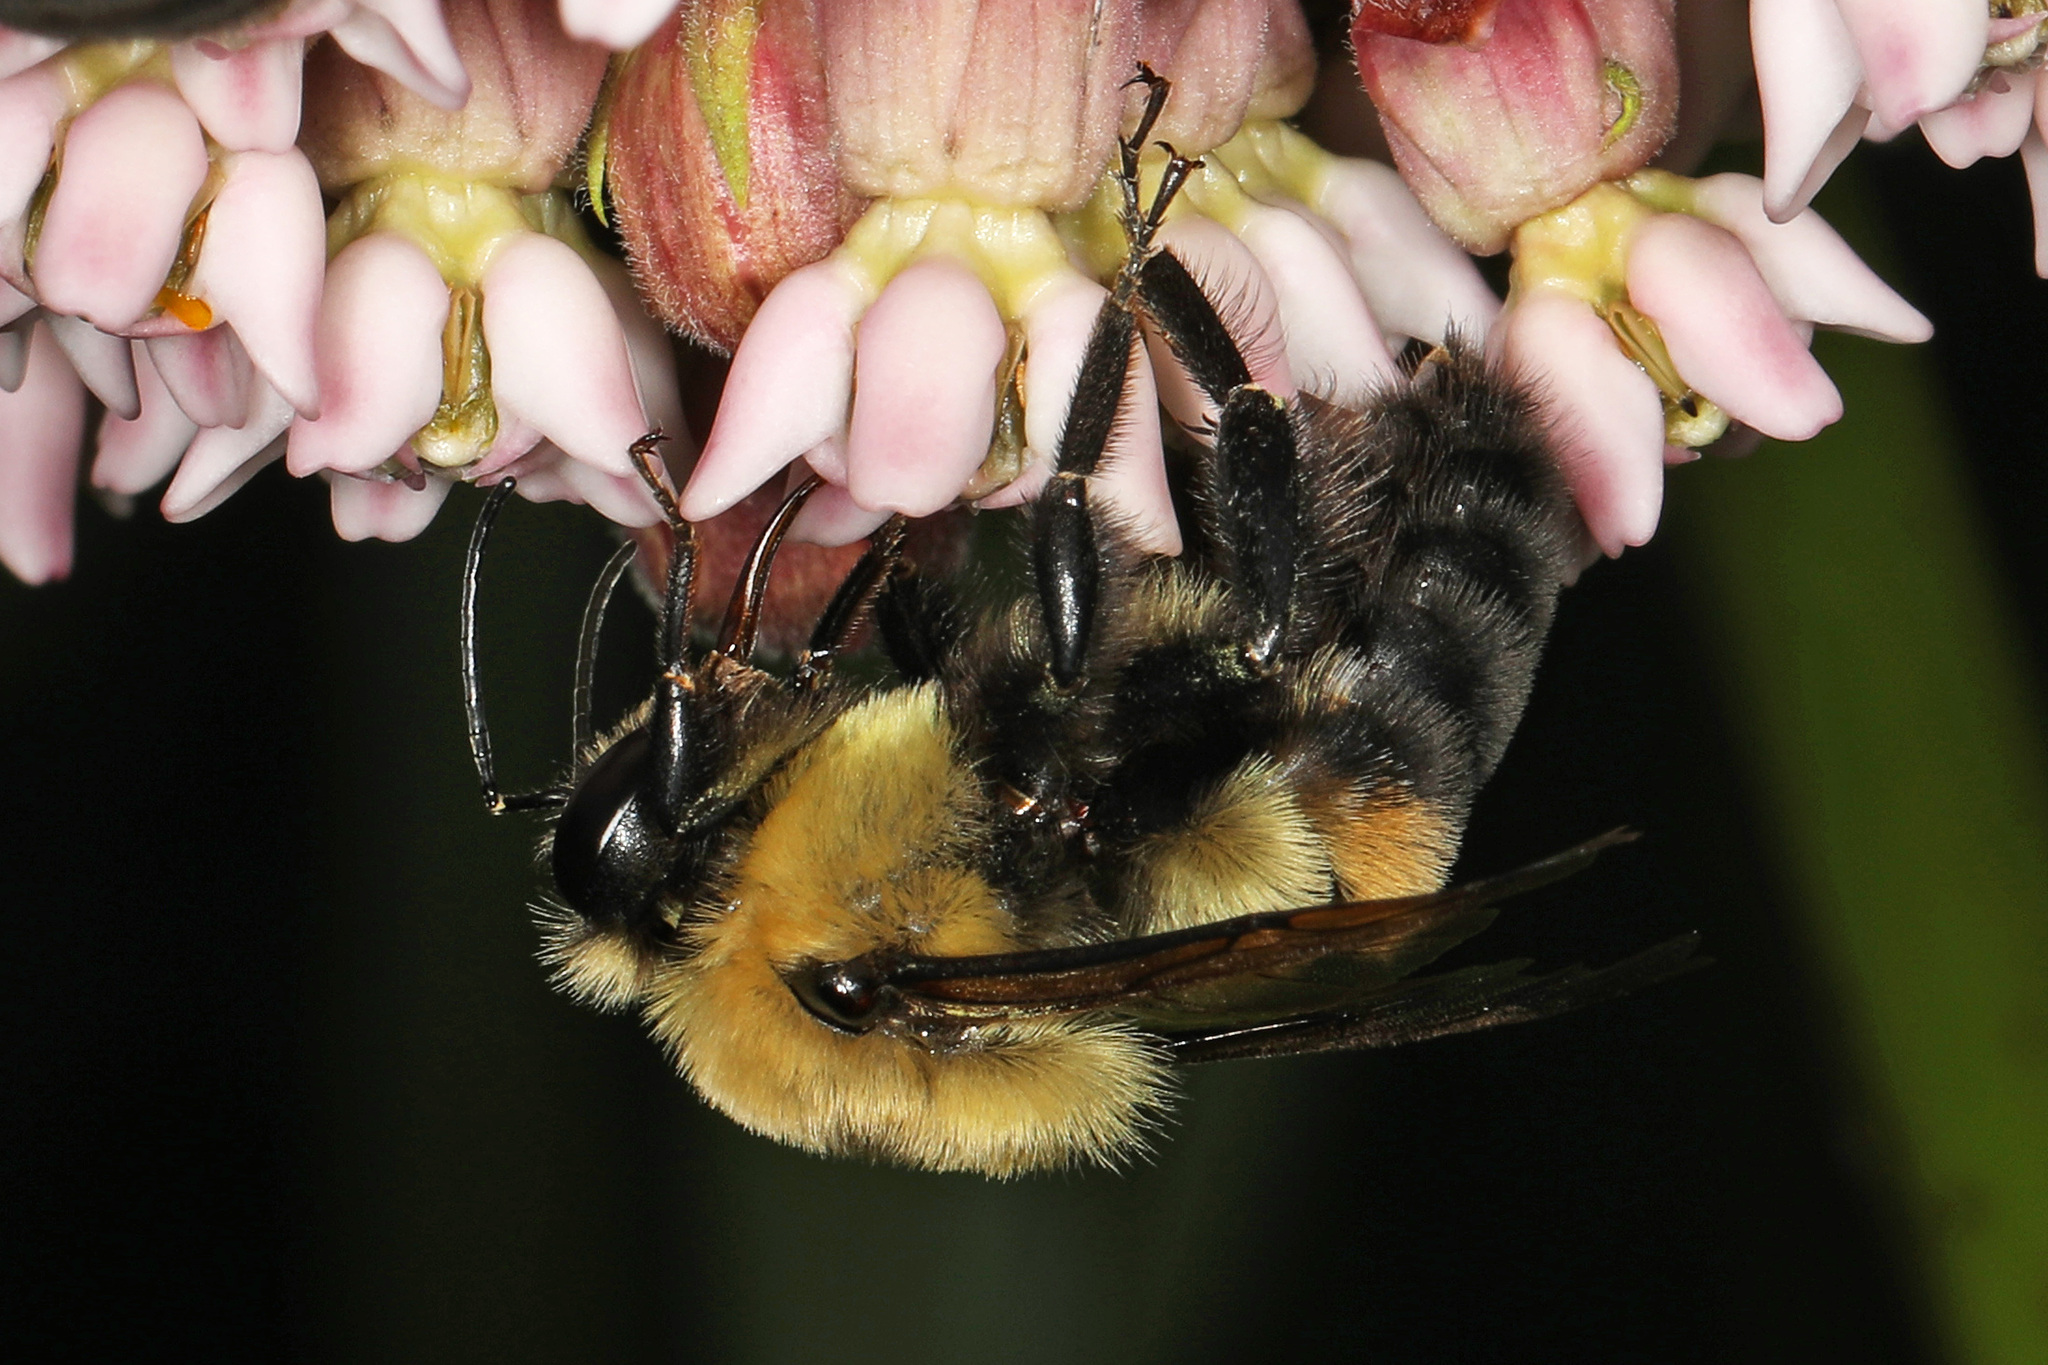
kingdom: Animalia
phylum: Arthropoda
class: Insecta
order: Hymenoptera
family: Apidae
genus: Bombus
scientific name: Bombus griseocollis
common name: Brown-belted bumble bee
